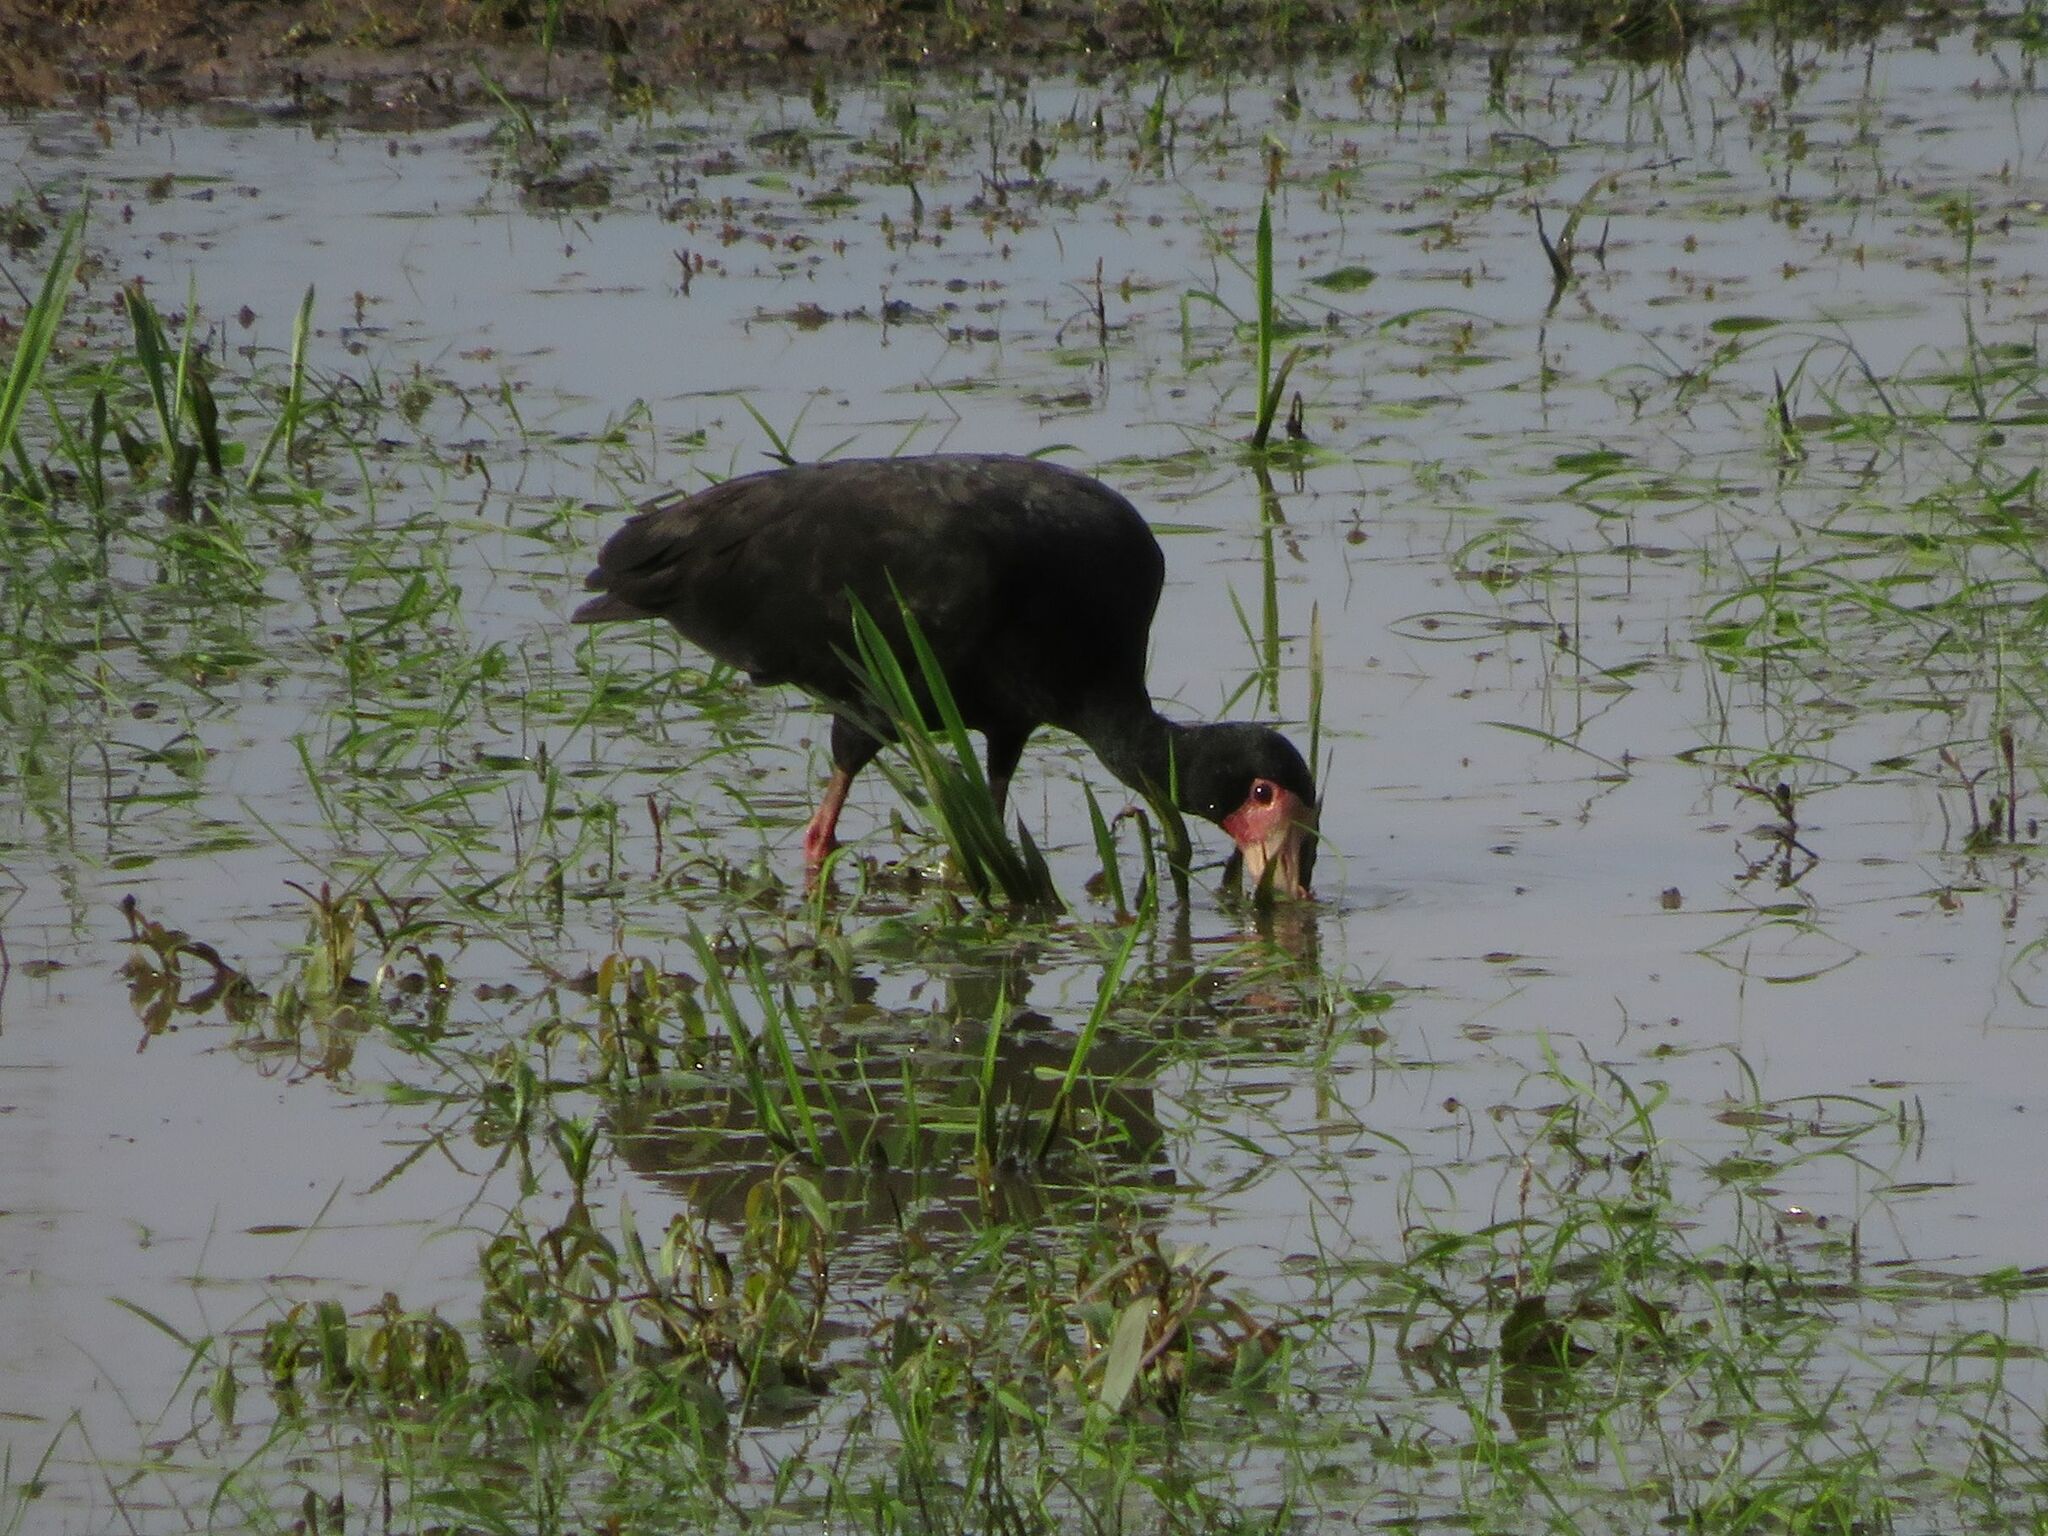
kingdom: Animalia
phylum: Chordata
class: Aves
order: Pelecaniformes
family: Threskiornithidae
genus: Phimosus
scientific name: Phimosus infuscatus
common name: Bare-faced ibis
